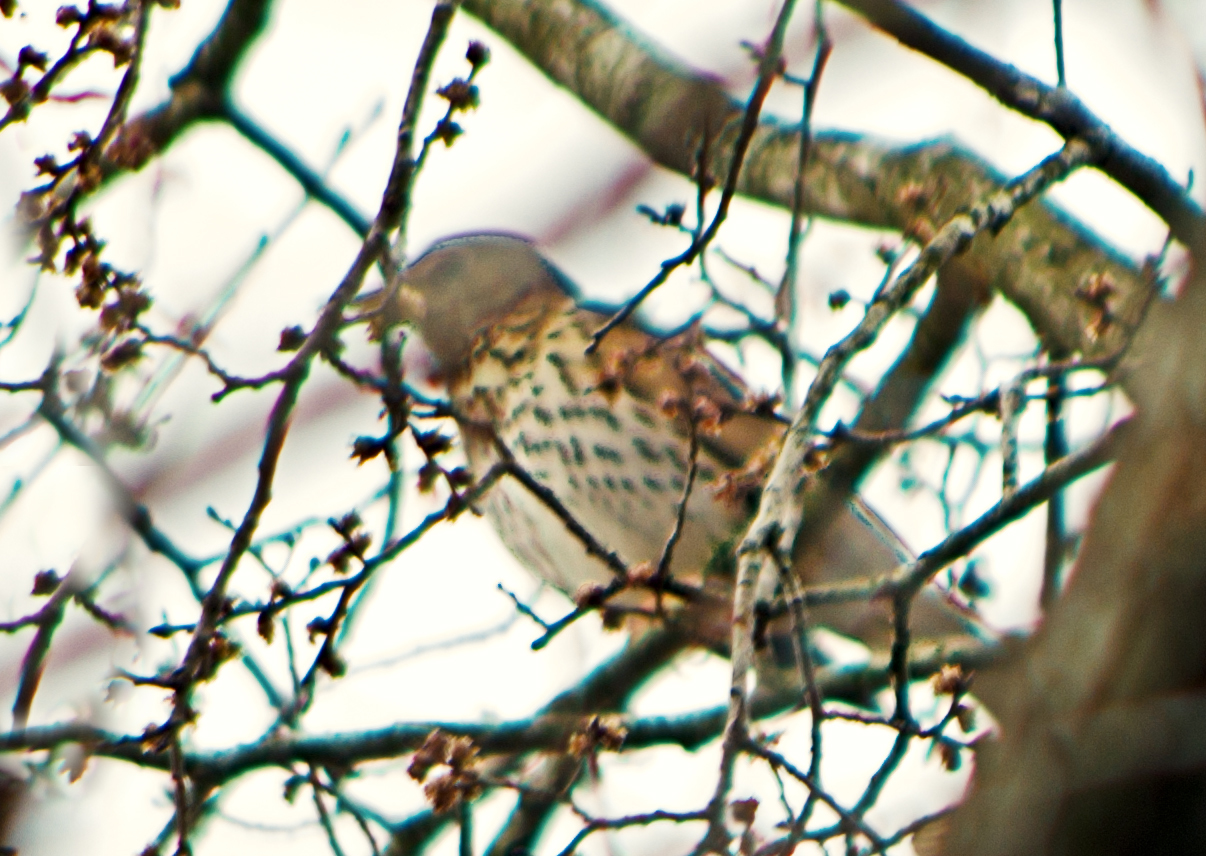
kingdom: Animalia
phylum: Chordata
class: Aves
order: Passeriformes
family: Turdidae
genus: Turdus
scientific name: Turdus pilaris
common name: Fieldfare
